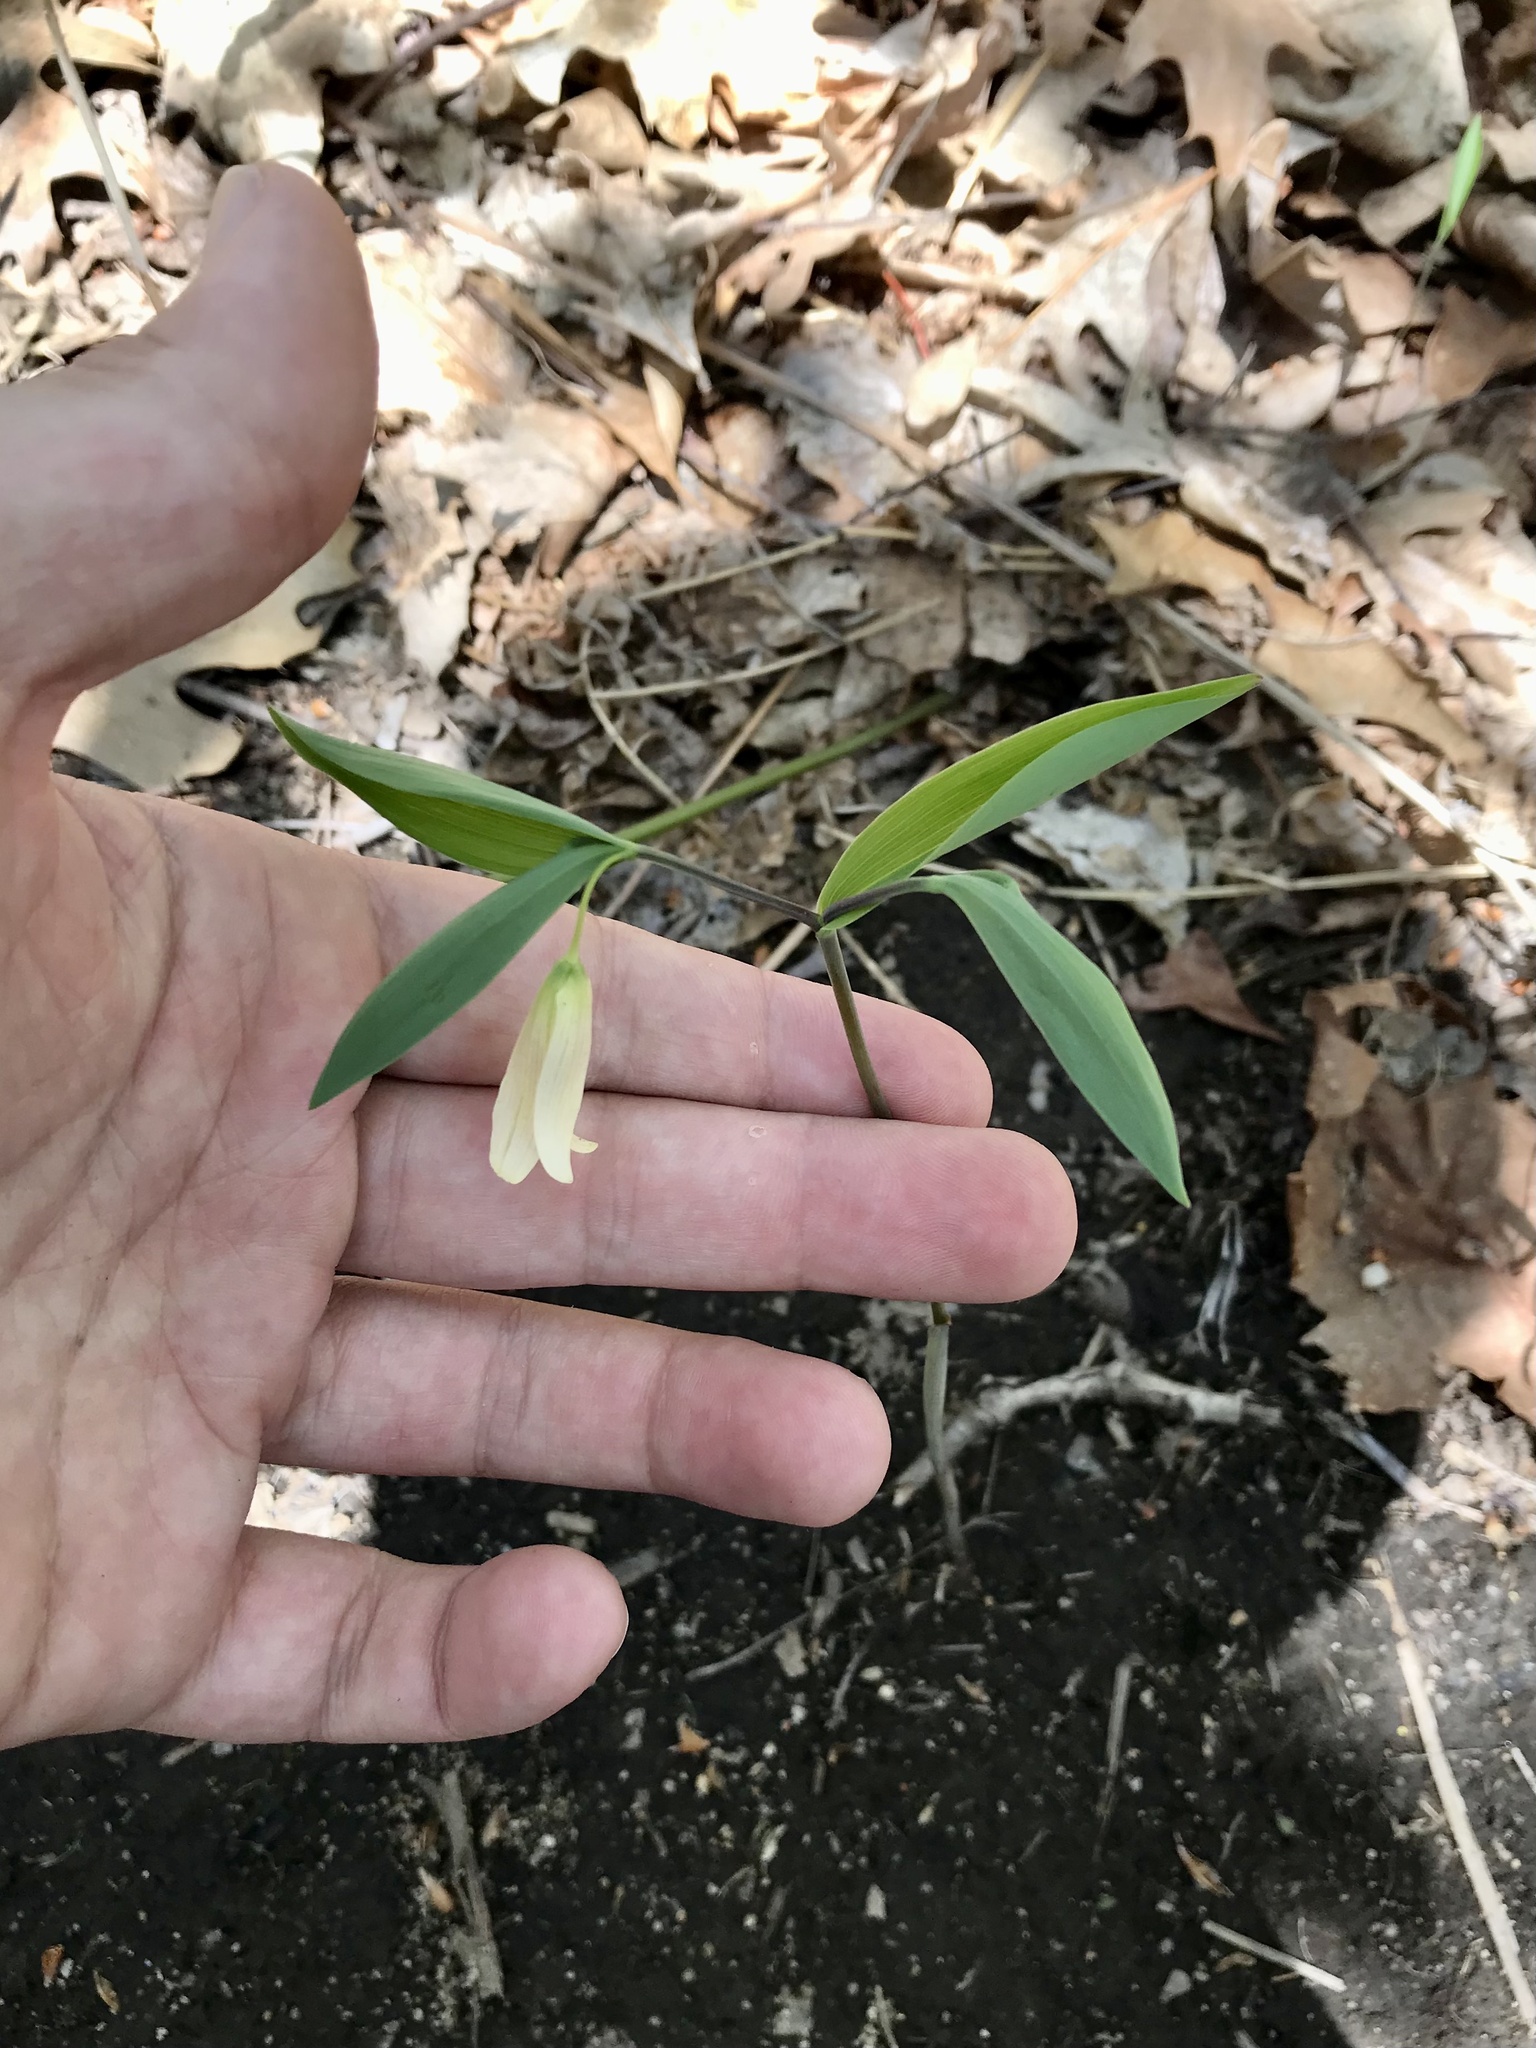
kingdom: Plantae
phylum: Tracheophyta
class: Liliopsida
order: Liliales
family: Colchicaceae
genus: Uvularia
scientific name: Uvularia sessilifolia
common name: Straw-lily
